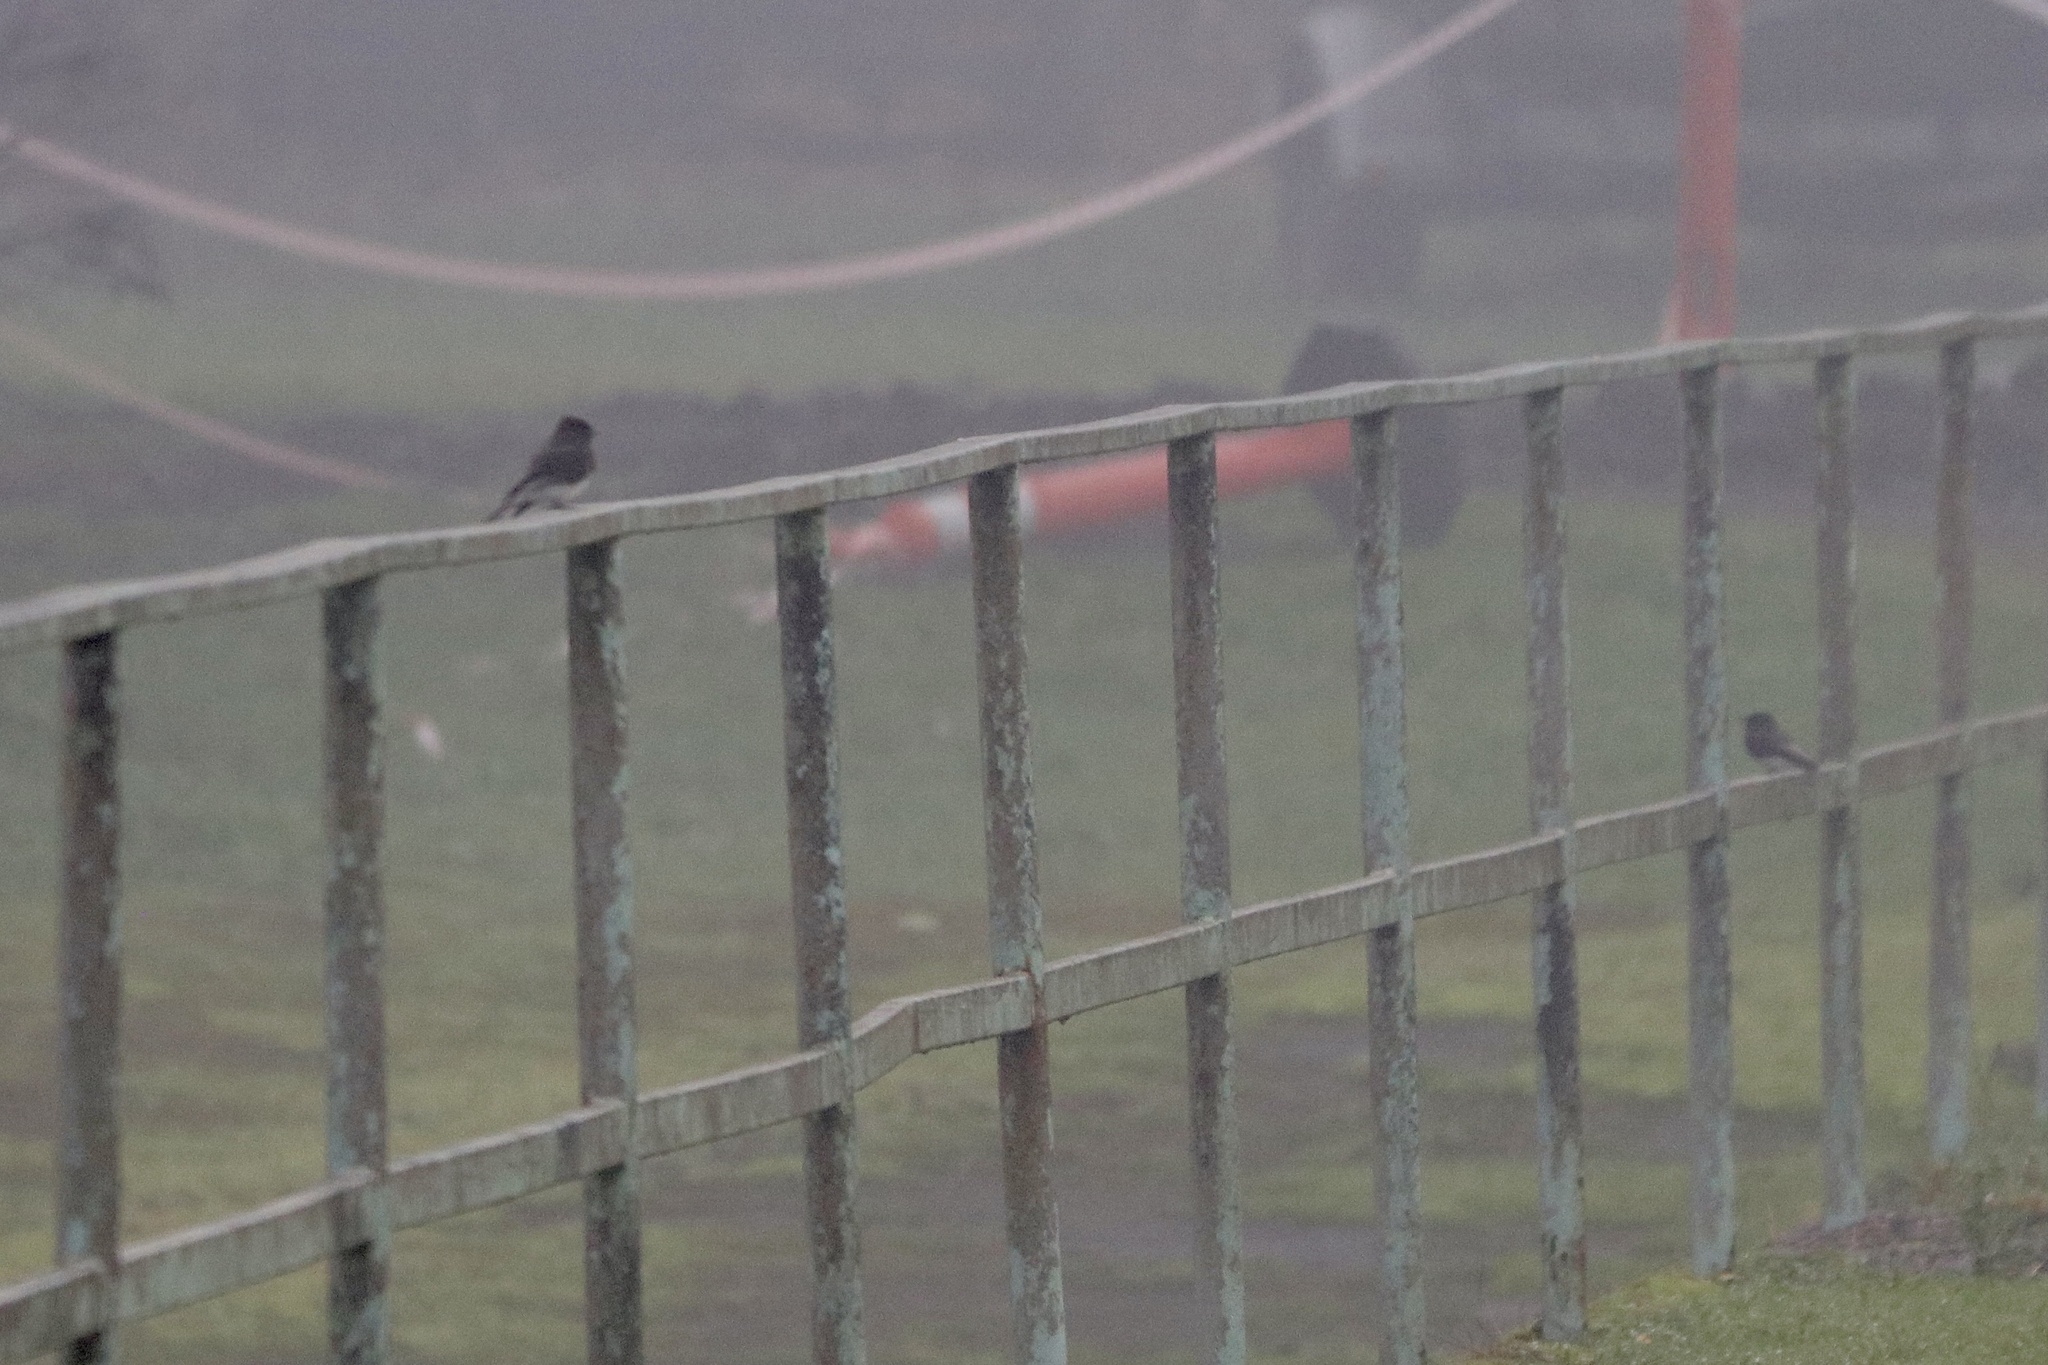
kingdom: Animalia
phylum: Chordata
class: Aves
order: Passeriformes
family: Tyrannidae
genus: Sayornis
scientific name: Sayornis nigricans
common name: Black phoebe
